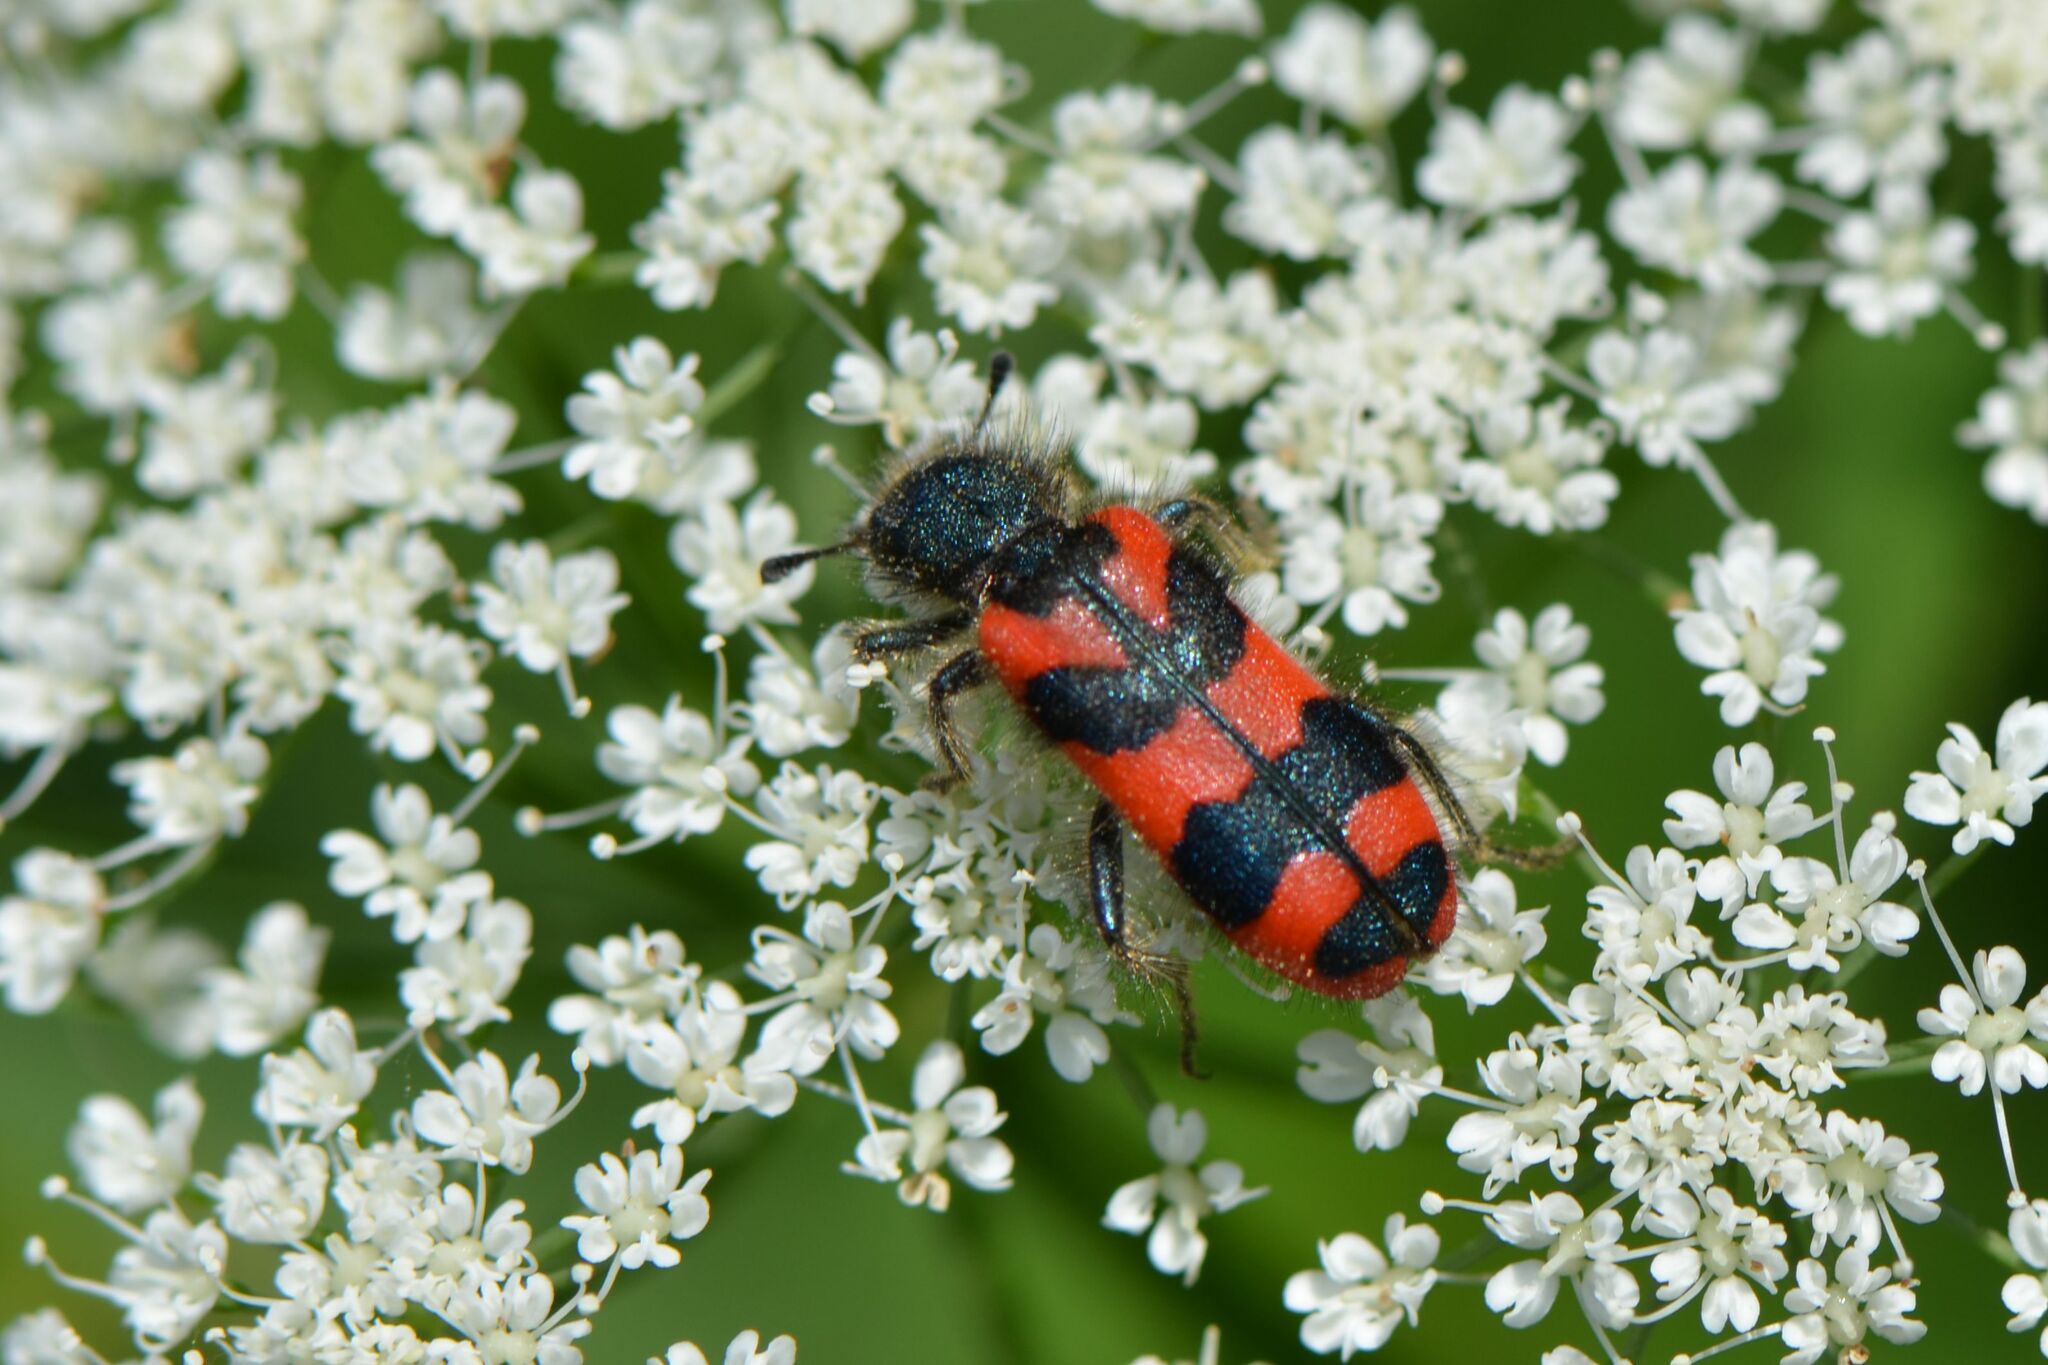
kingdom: Animalia
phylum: Arthropoda
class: Insecta
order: Coleoptera
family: Cleridae
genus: Trichodes
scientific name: Trichodes alvearius
